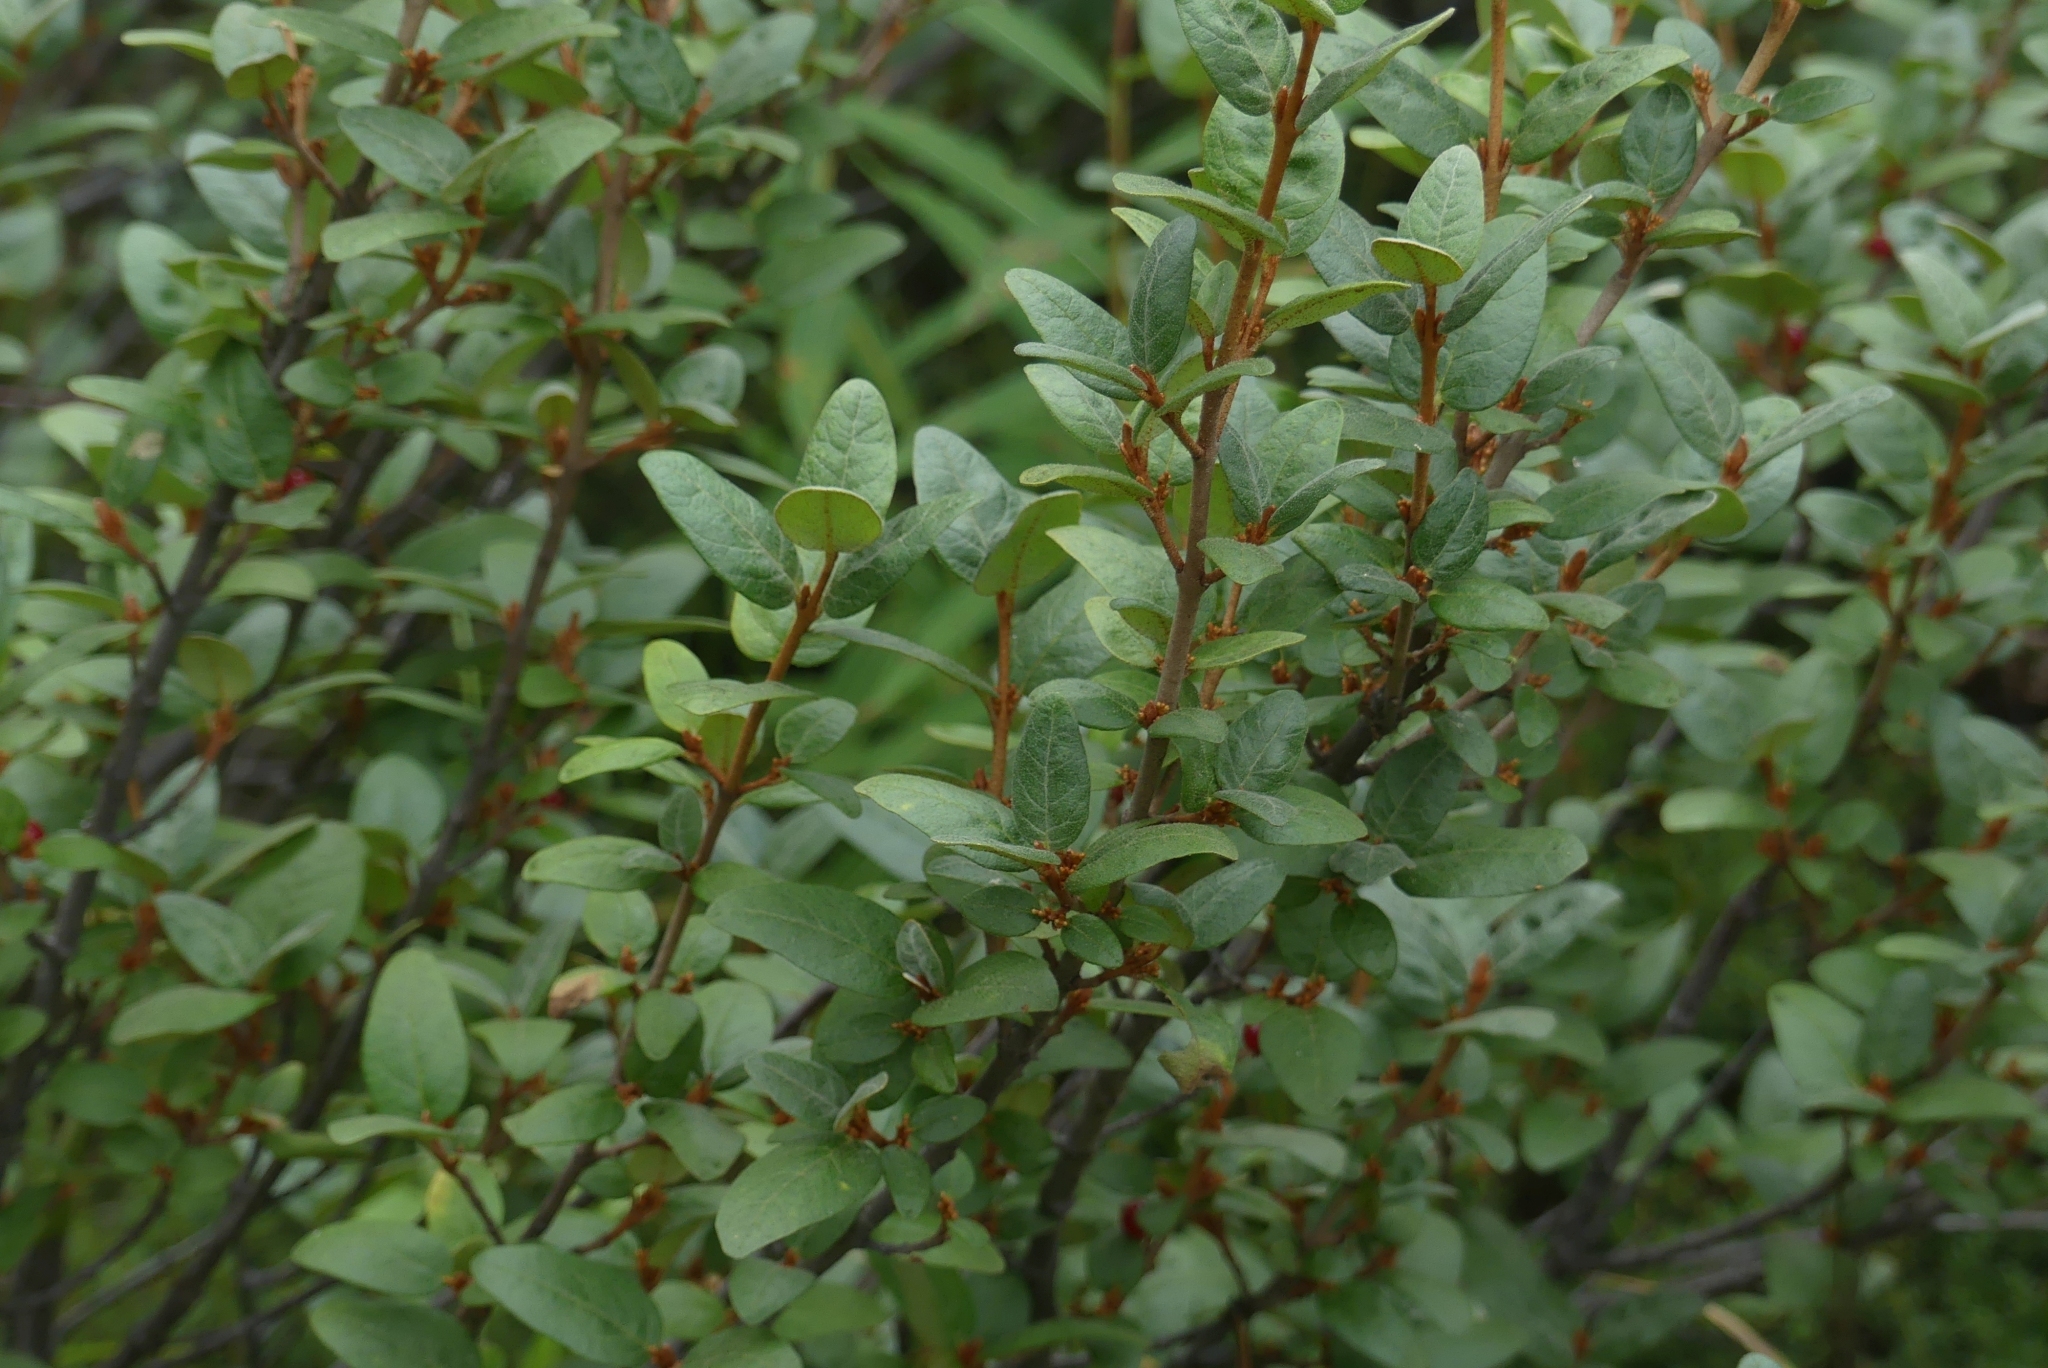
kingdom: Plantae
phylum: Tracheophyta
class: Magnoliopsida
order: Rosales
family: Elaeagnaceae
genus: Shepherdia
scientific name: Shepherdia canadensis
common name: Soapberry
